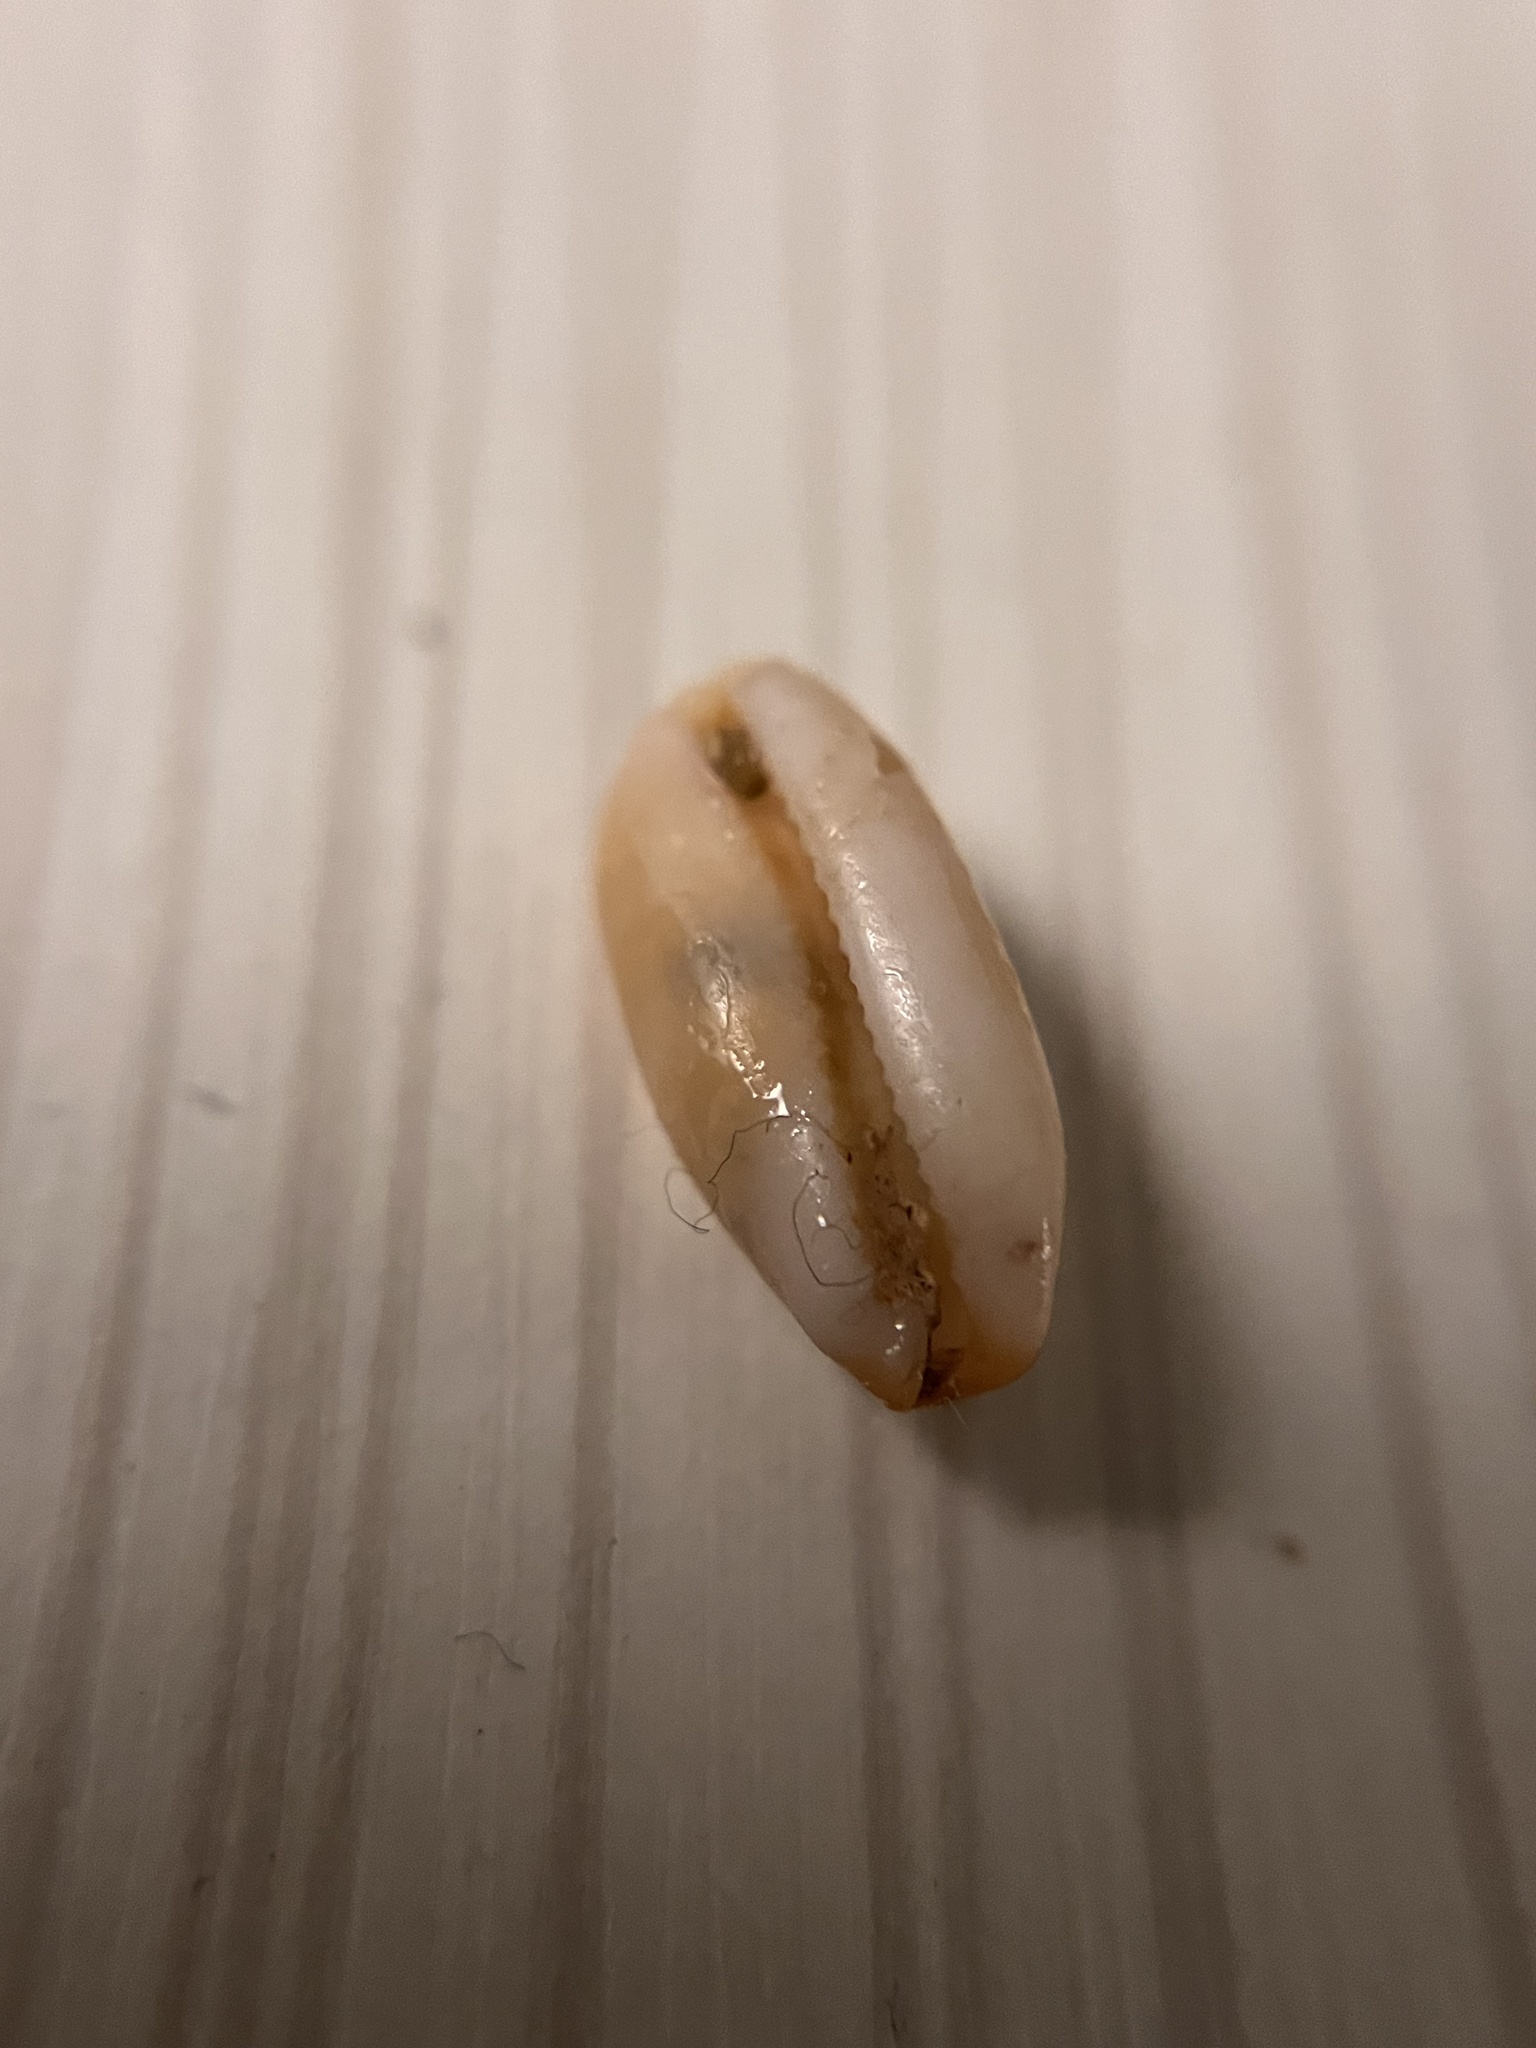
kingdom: Animalia
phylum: Mollusca
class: Gastropoda
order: Littorinimorpha
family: Cypraeidae
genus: Luria
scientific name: Luria isabella
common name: Isabell cowry
